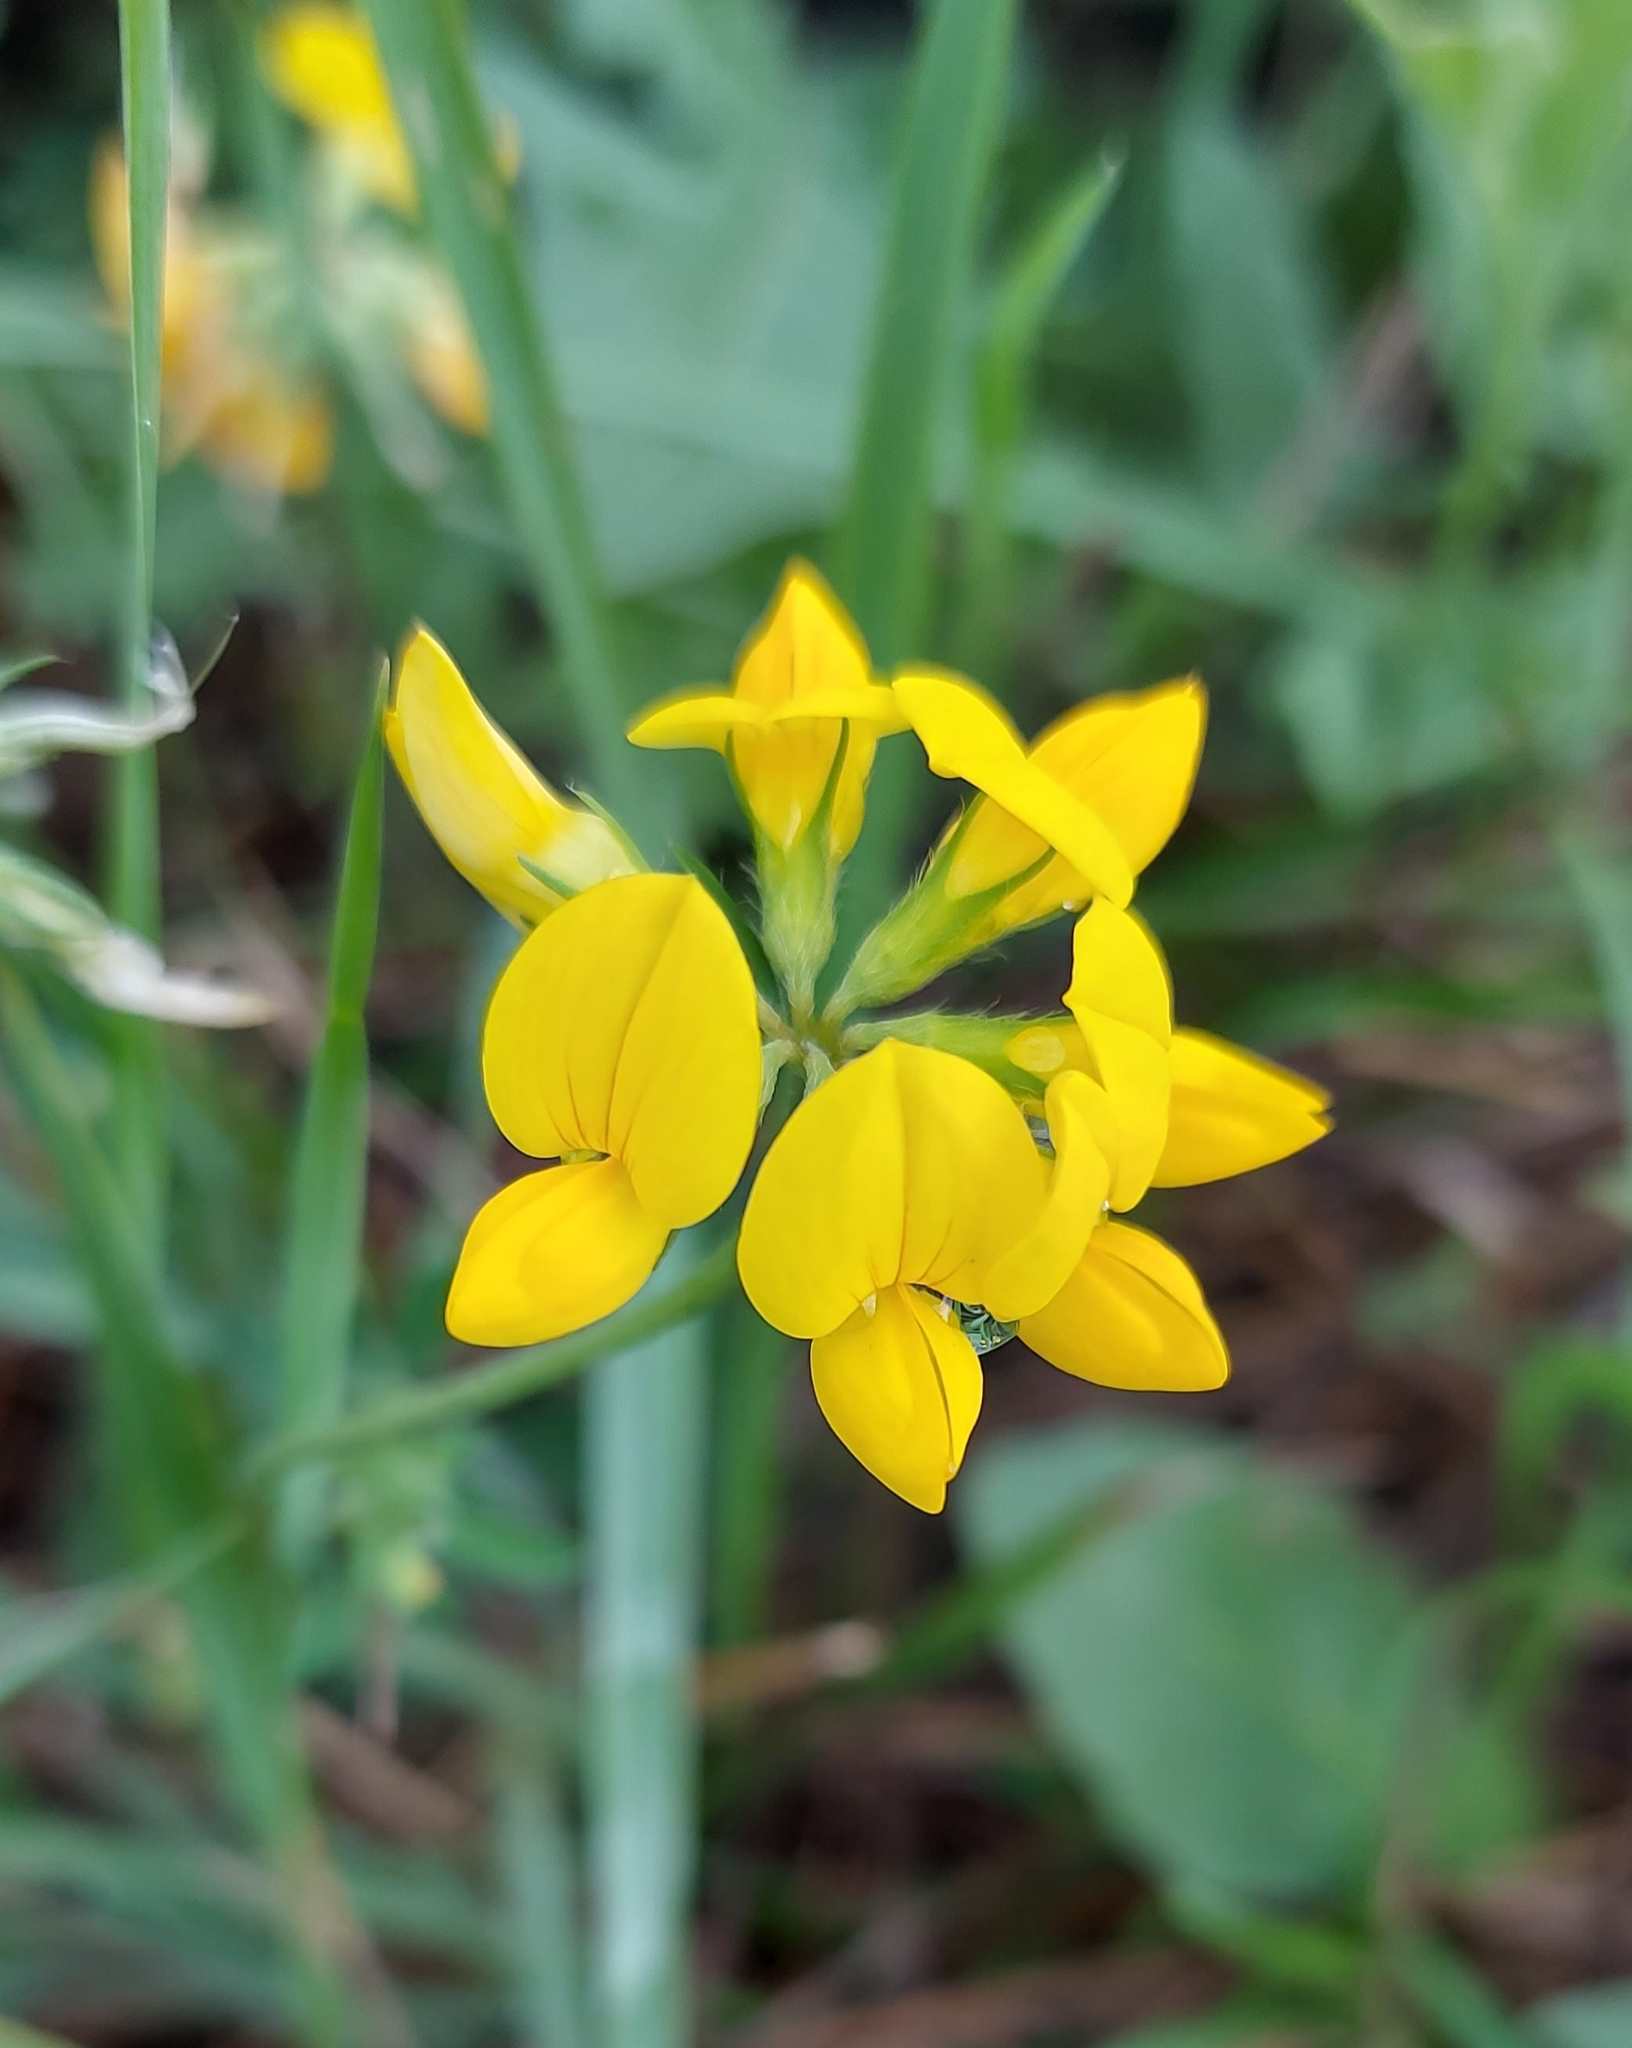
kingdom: Plantae
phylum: Tracheophyta
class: Magnoliopsida
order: Fabales
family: Fabaceae
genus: Lotus
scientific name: Lotus corniculatus
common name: Common bird's-foot-trefoil
